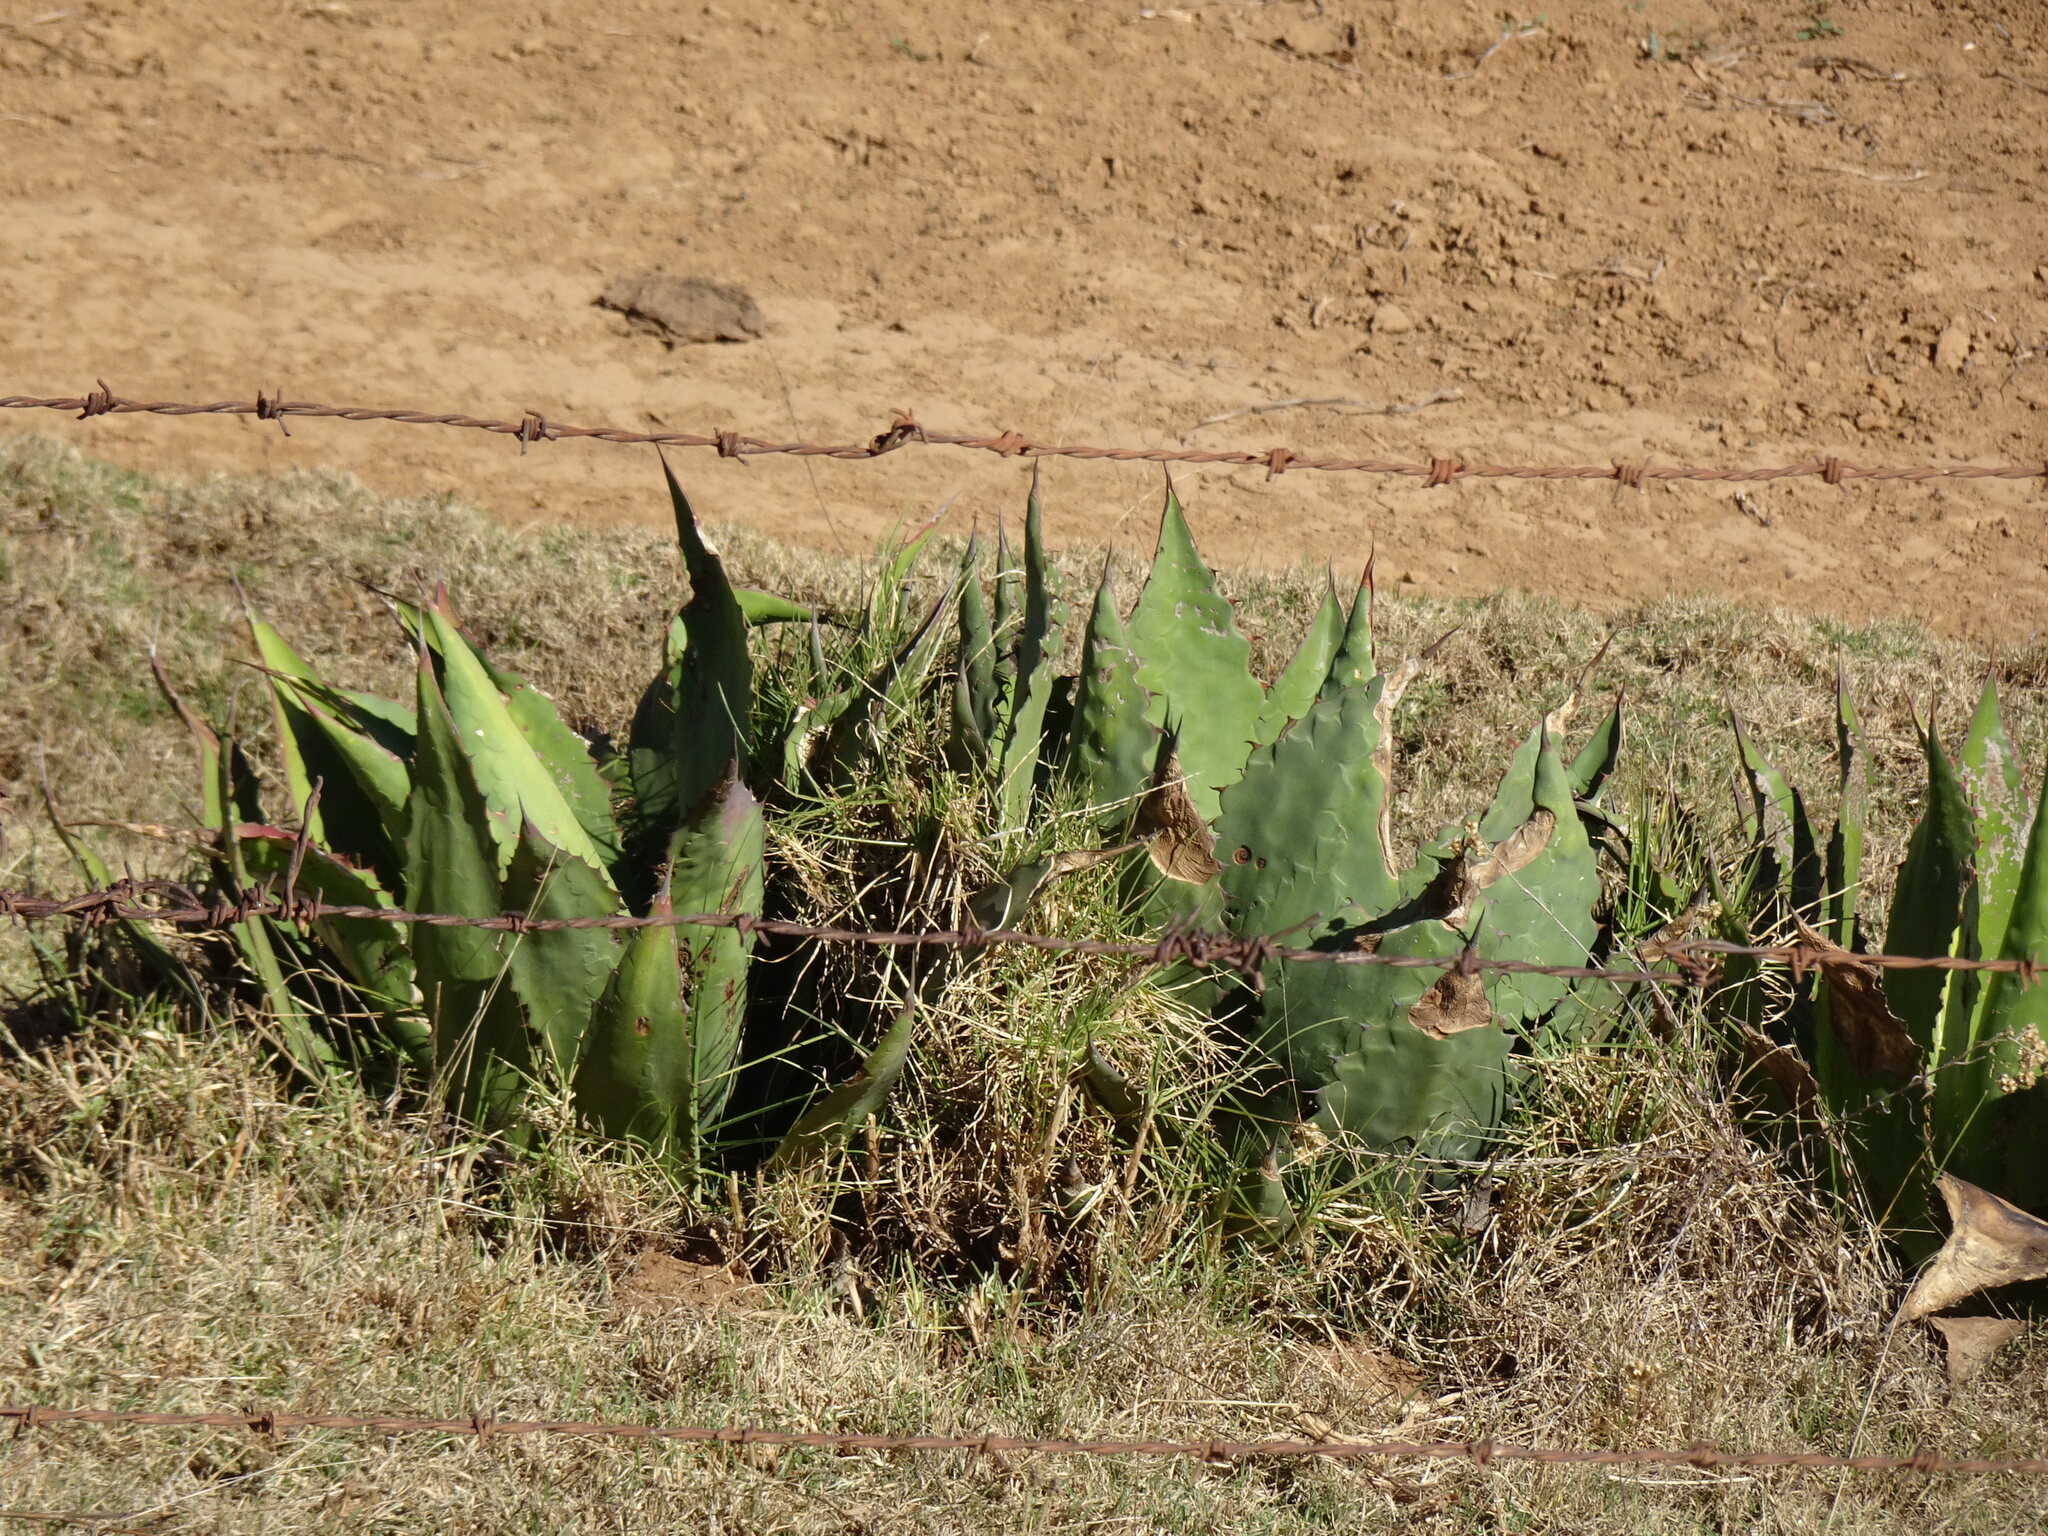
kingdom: Plantae
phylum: Tracheophyta
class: Liliopsida
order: Asparagales
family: Asparagaceae
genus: Agave
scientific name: Agave inaequidens
